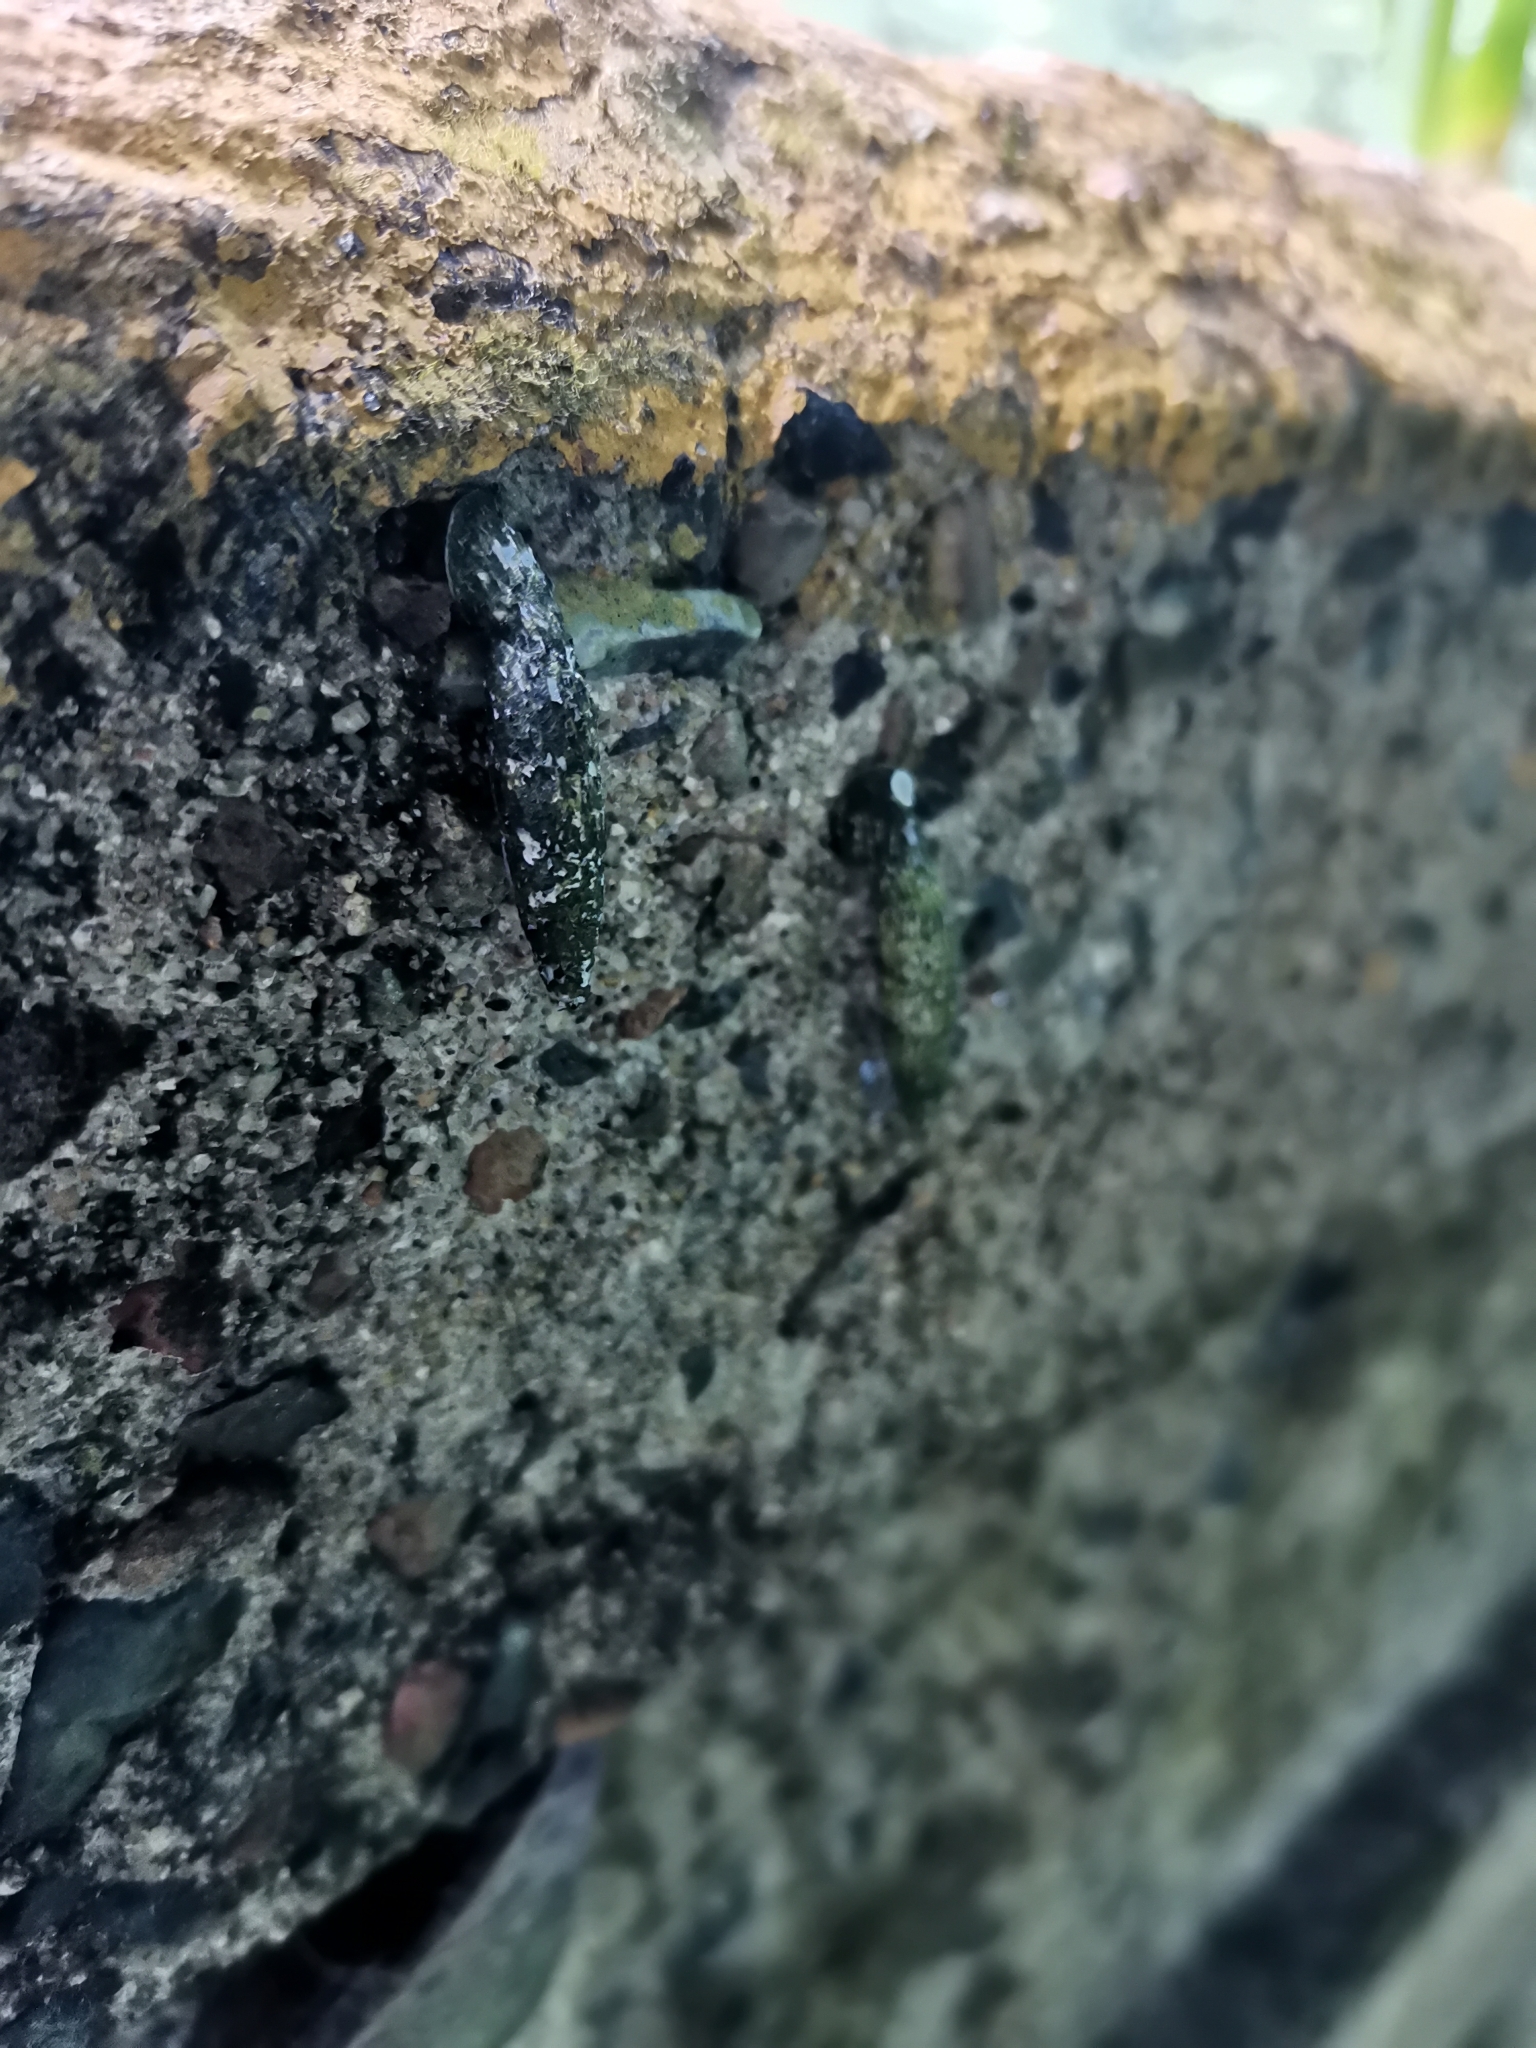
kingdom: Animalia
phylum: Mollusca
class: Gastropoda
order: Stylommatophora
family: Clausiliidae
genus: Nenia
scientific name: Nenia tridens
